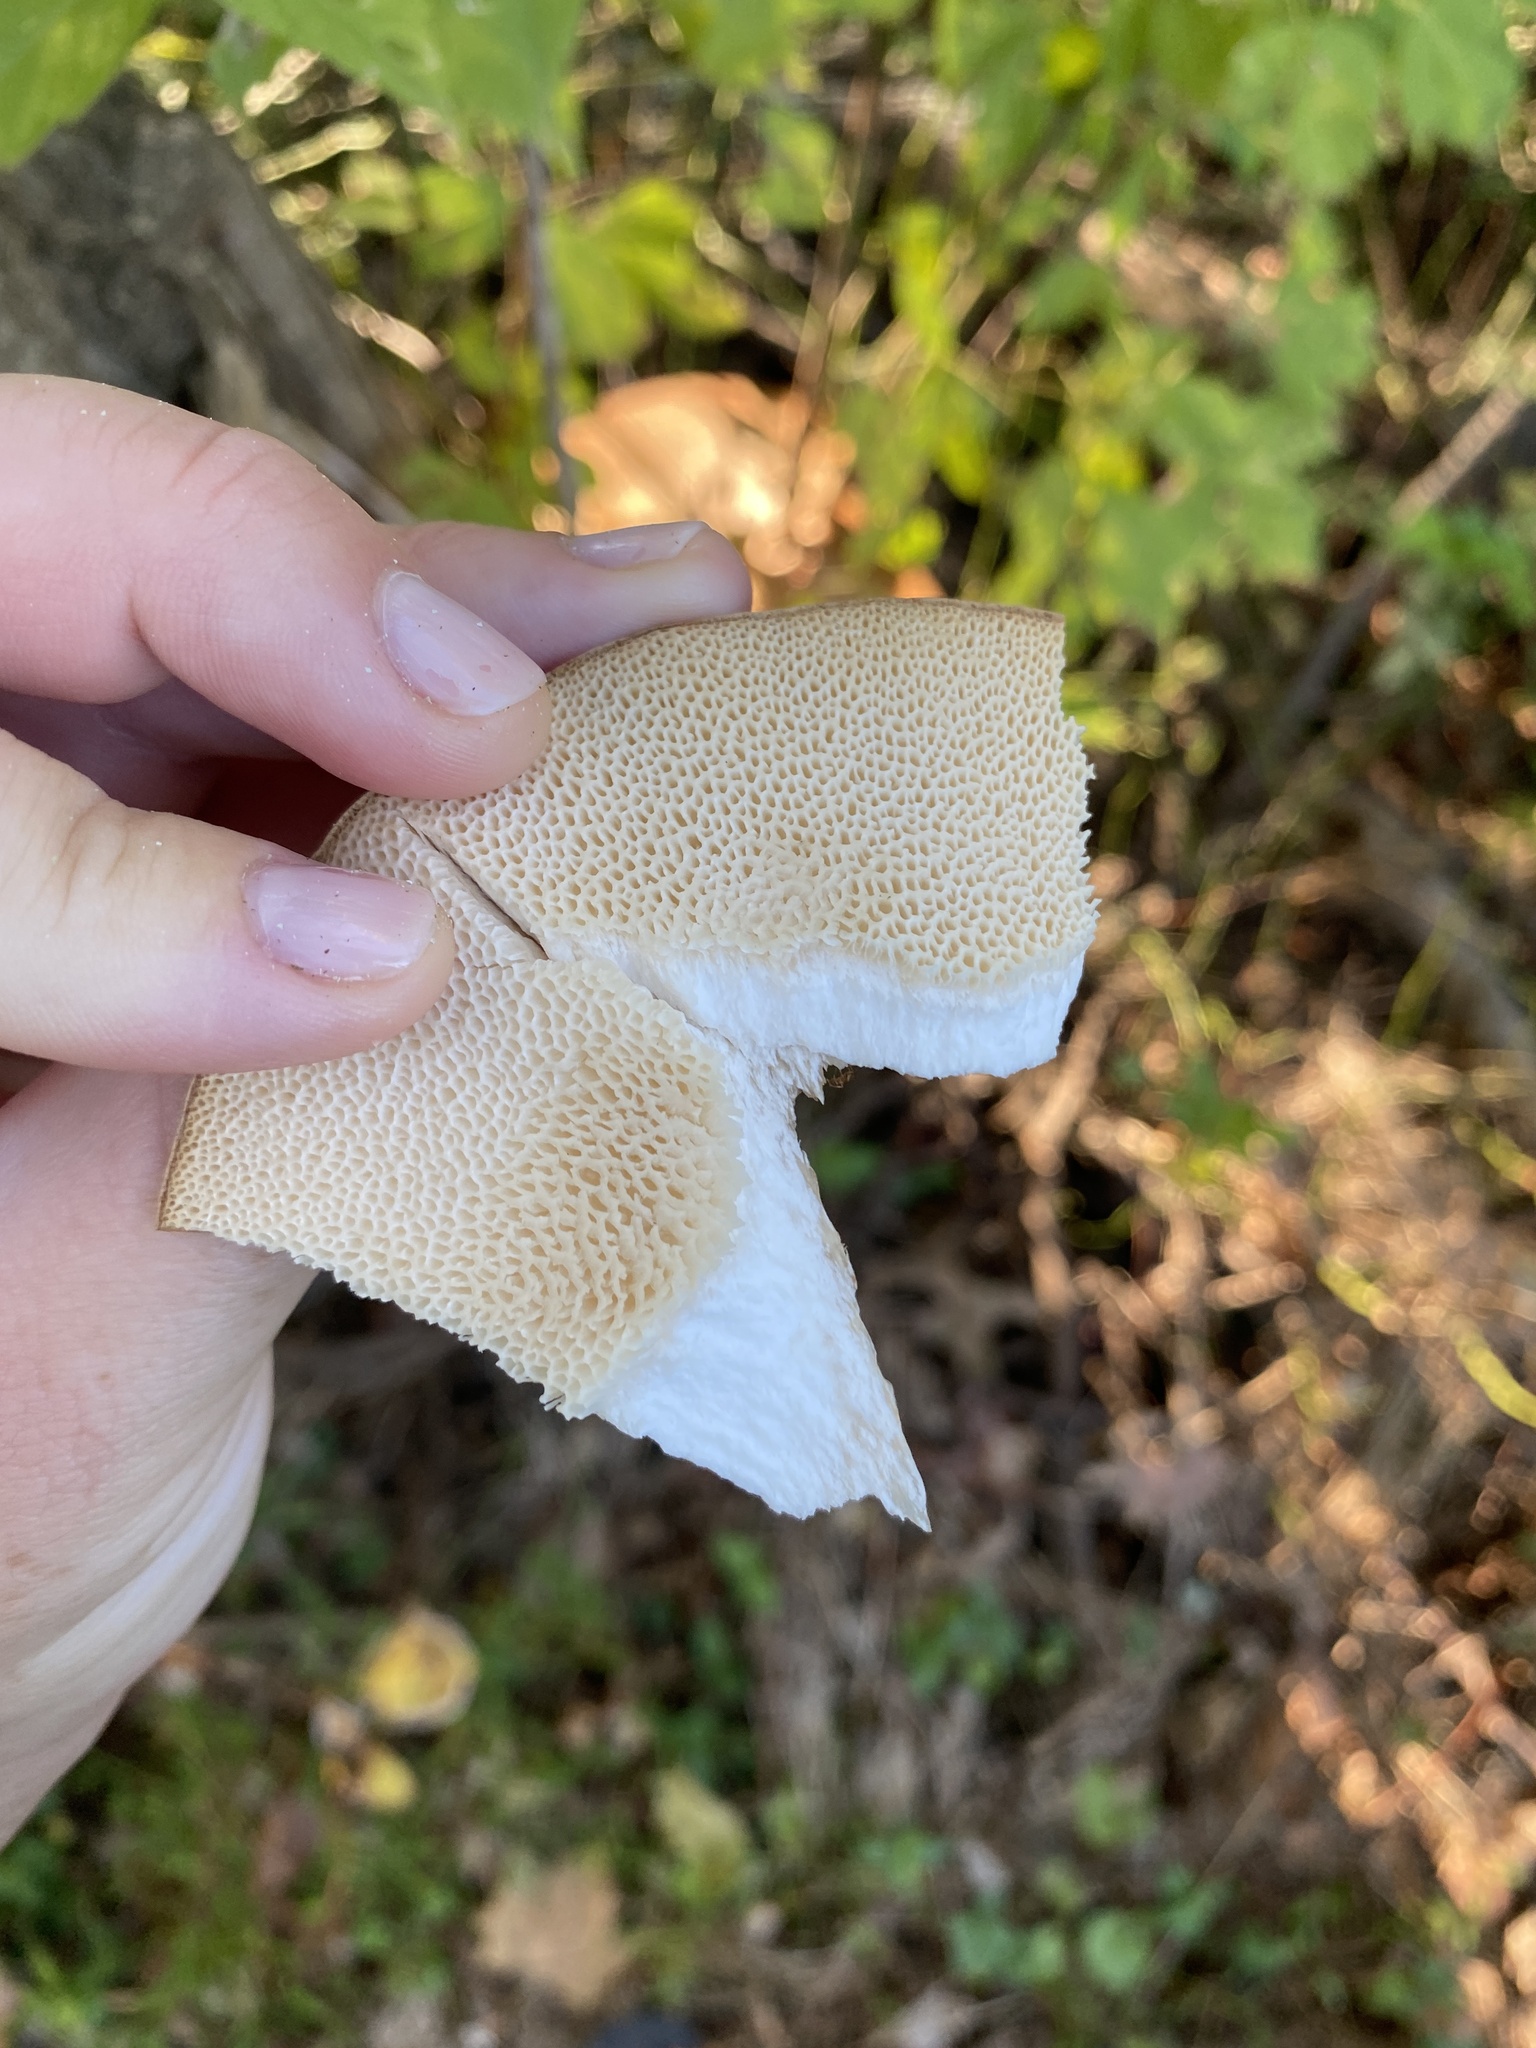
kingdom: Fungi
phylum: Basidiomycota
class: Agaricomycetes
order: Polyporales
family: Polyporaceae
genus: Cerioporus
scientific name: Cerioporus squamosus
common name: Dryad's saddle
